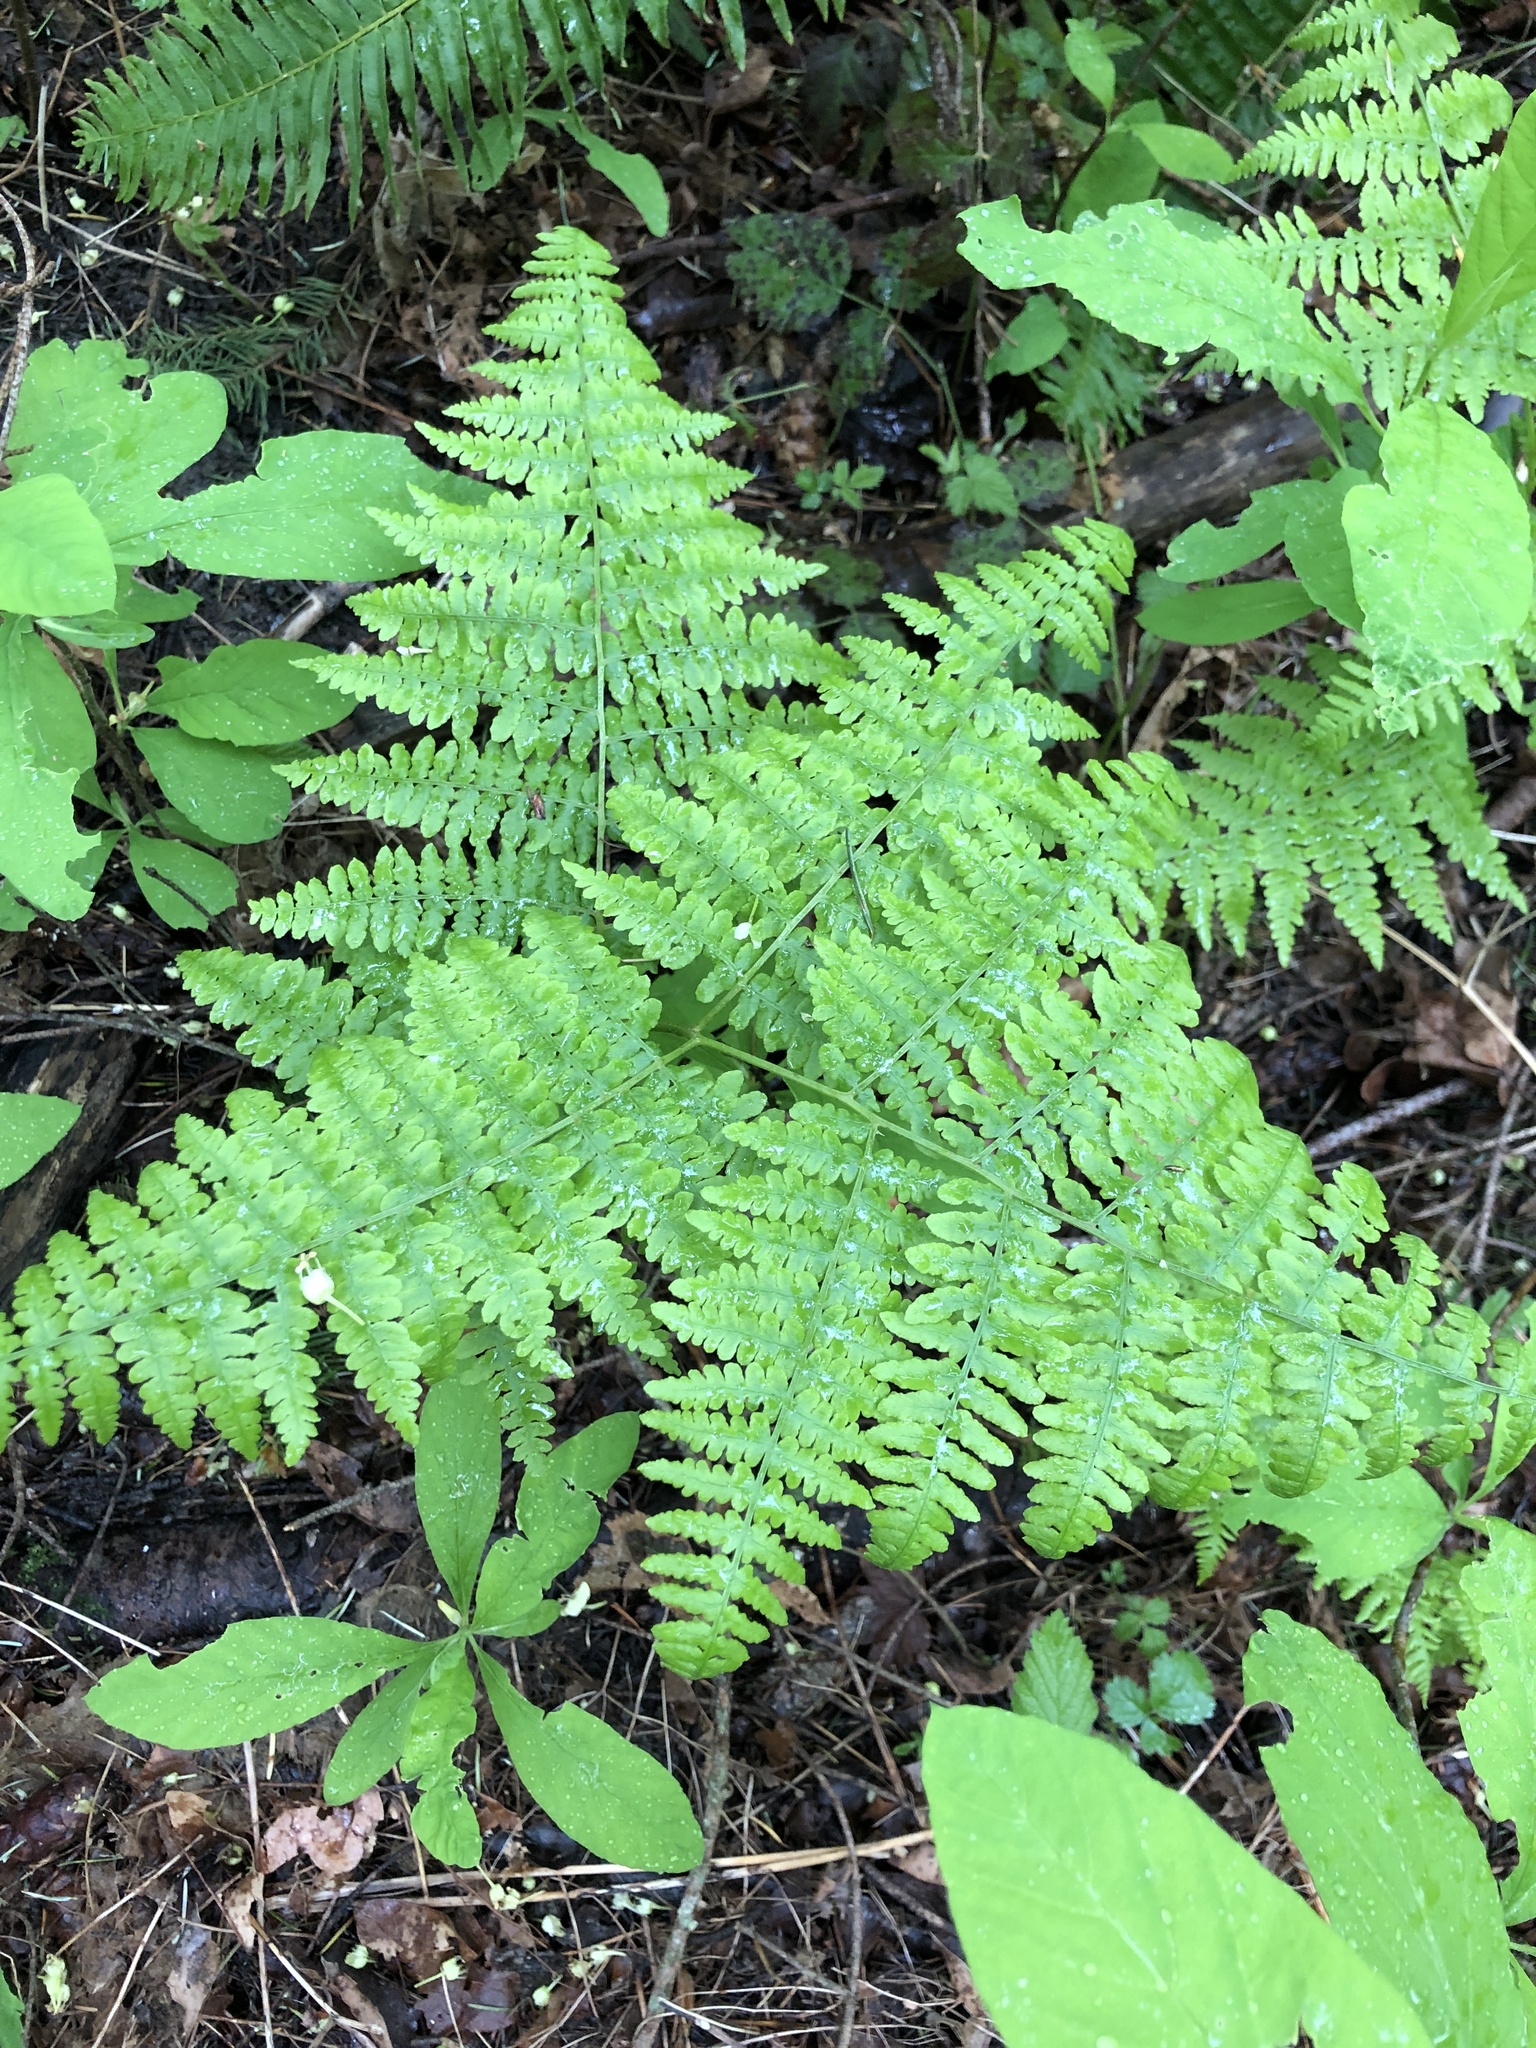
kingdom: Plantae
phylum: Tracheophyta
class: Polypodiopsida
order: Polypodiales
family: Dennstaedtiaceae
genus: Pteridium
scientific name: Pteridium aquilinum
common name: Bracken
